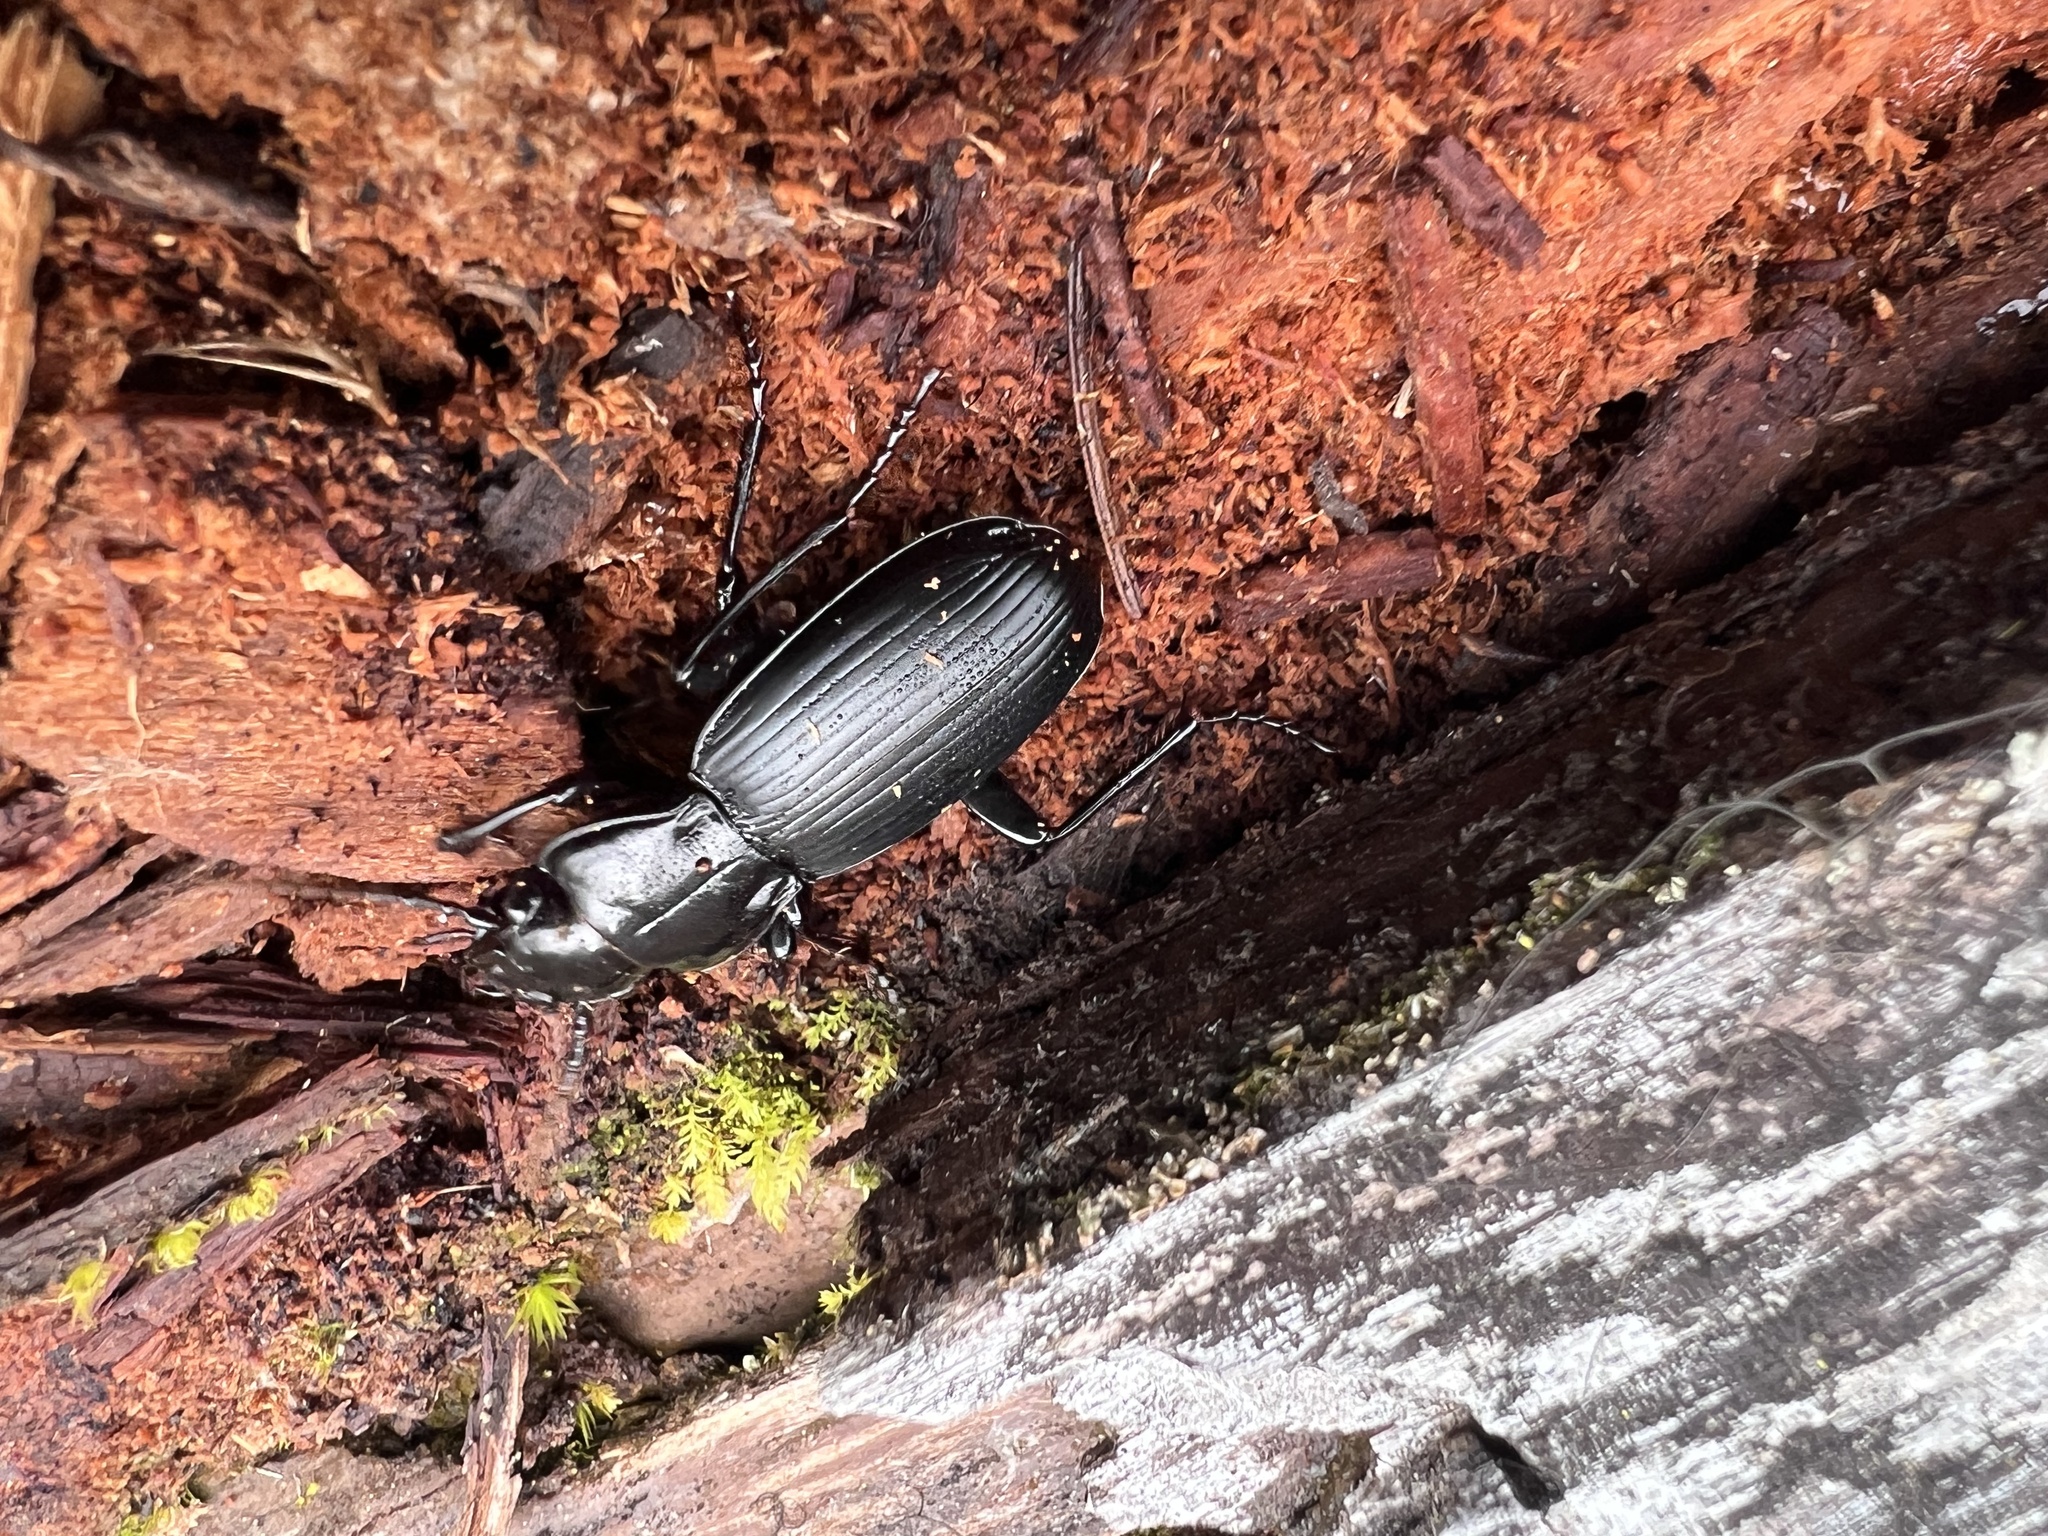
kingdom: Animalia
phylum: Arthropoda
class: Insecta
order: Coleoptera
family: Carabidae
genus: Pterostichus
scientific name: Pterostichus lama
